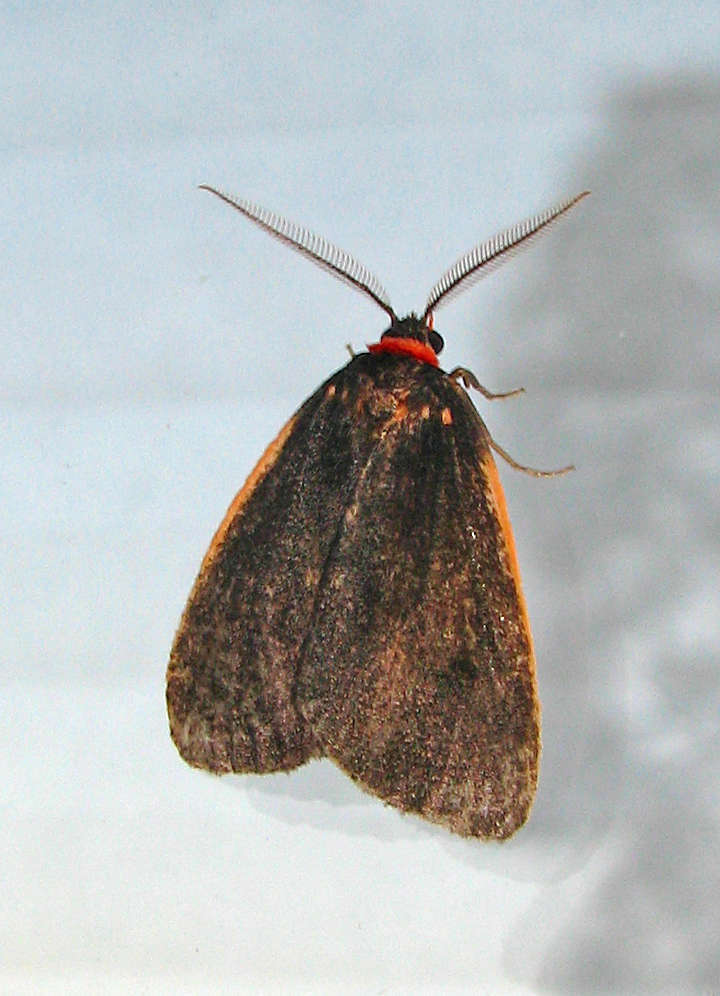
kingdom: Animalia
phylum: Arthropoda
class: Insecta
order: Lepidoptera
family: Erebidae
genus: Castulo
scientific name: Castulo doubledayi
